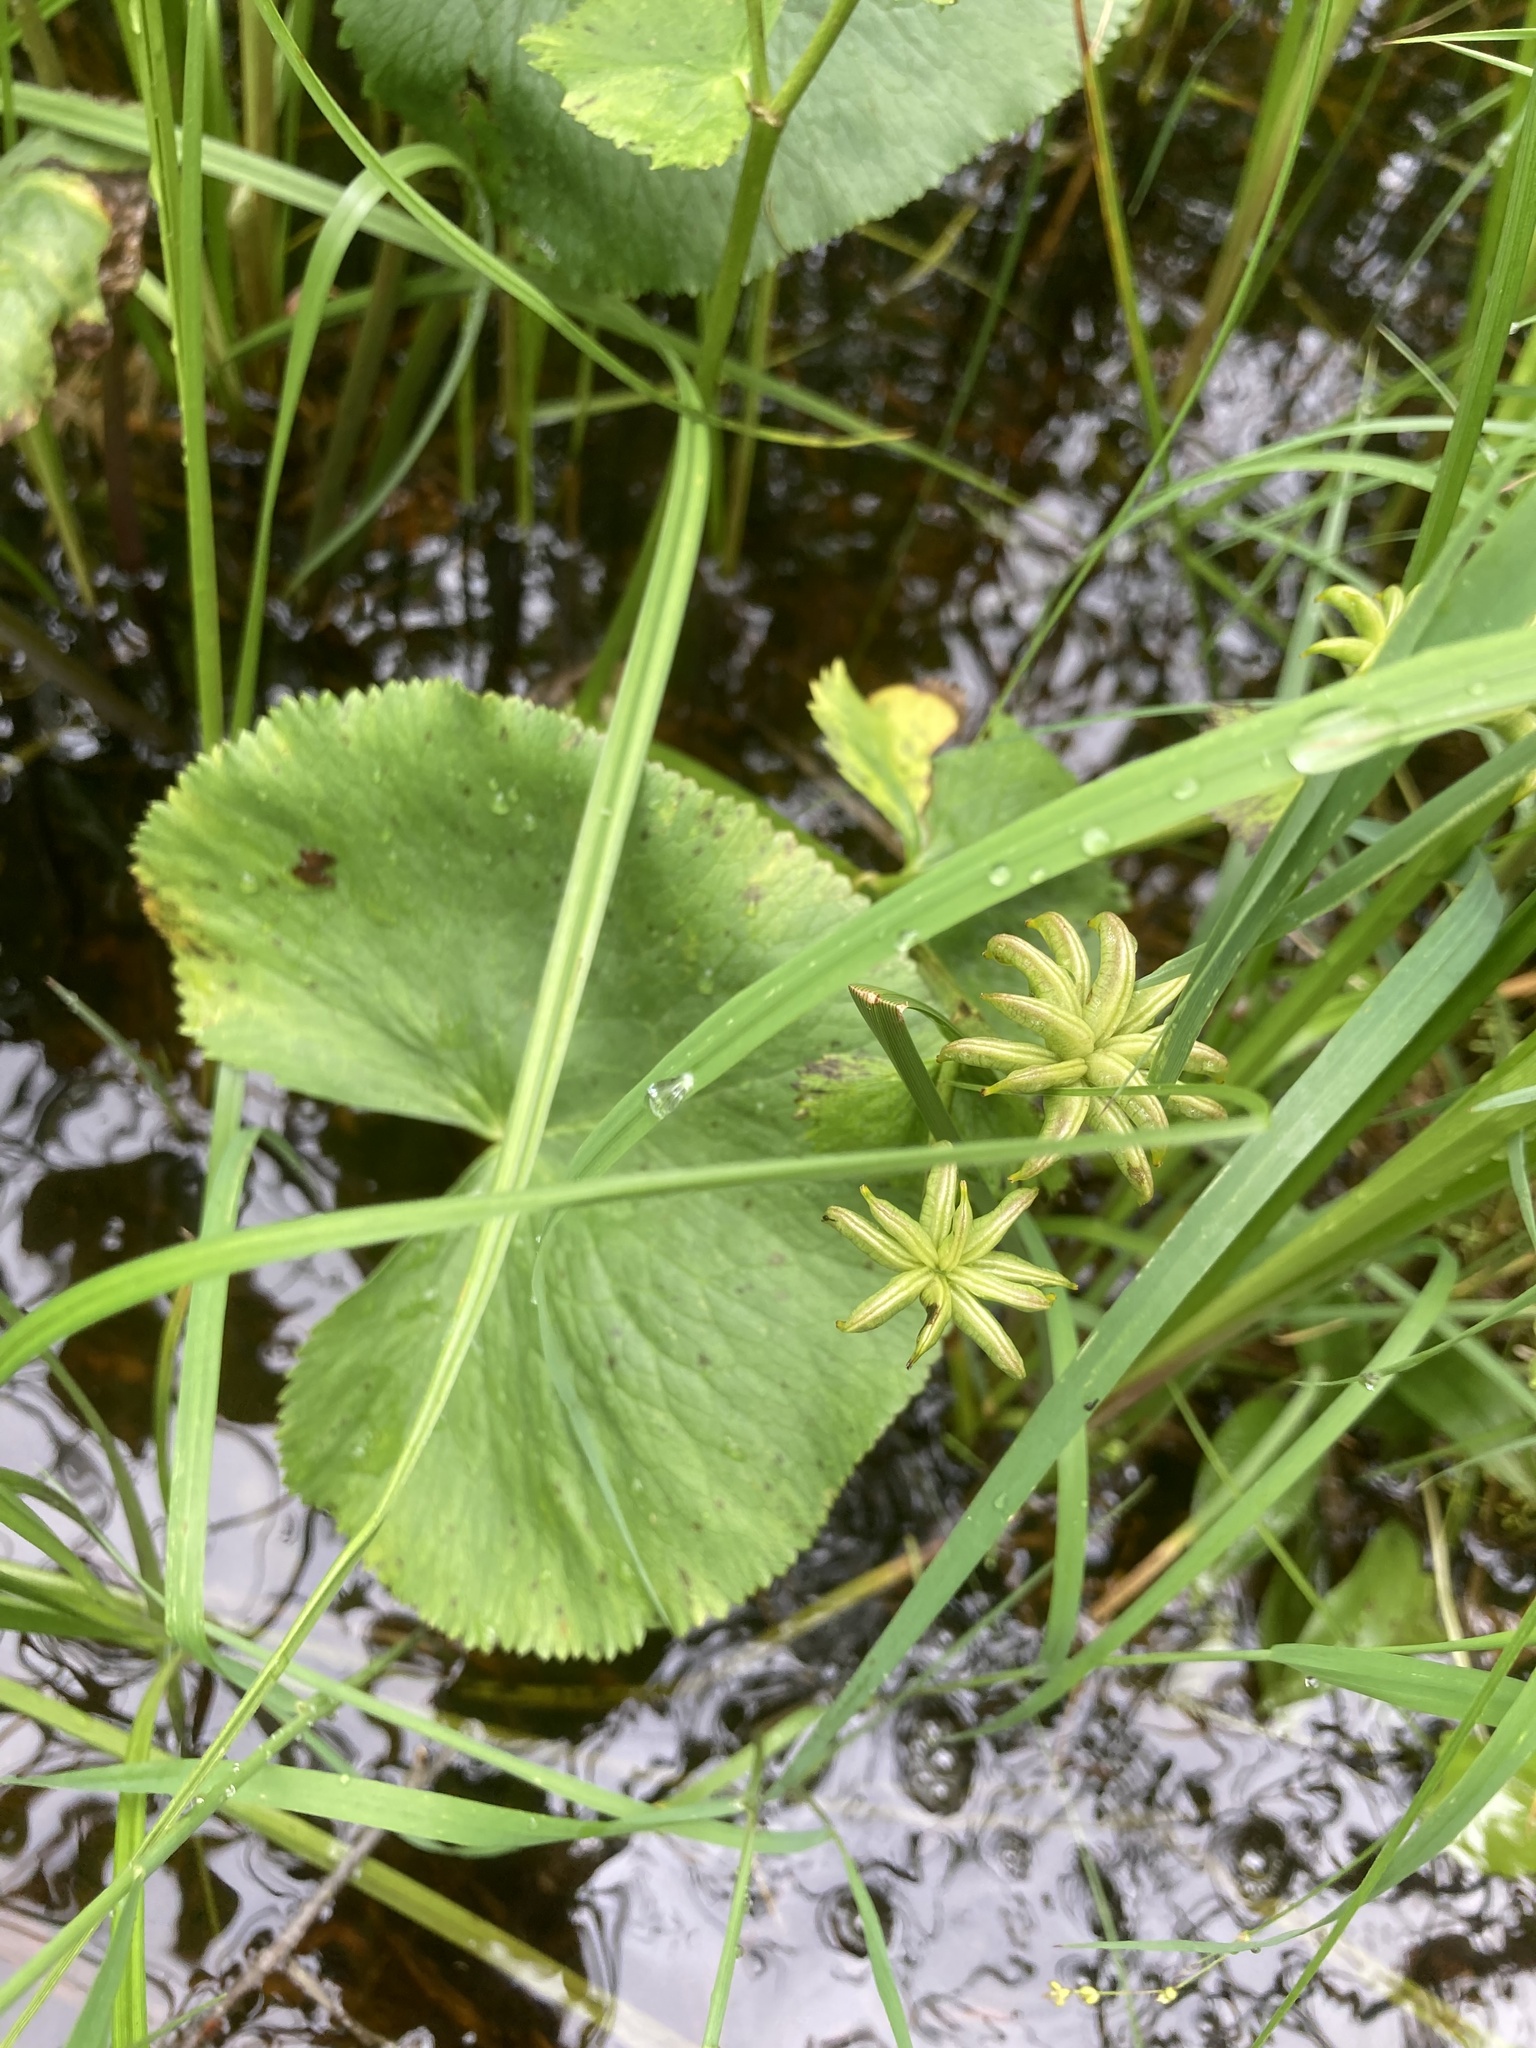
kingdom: Plantae
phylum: Tracheophyta
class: Magnoliopsida
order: Ranunculales
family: Ranunculaceae
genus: Caltha
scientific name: Caltha palustris
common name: Marsh marigold
